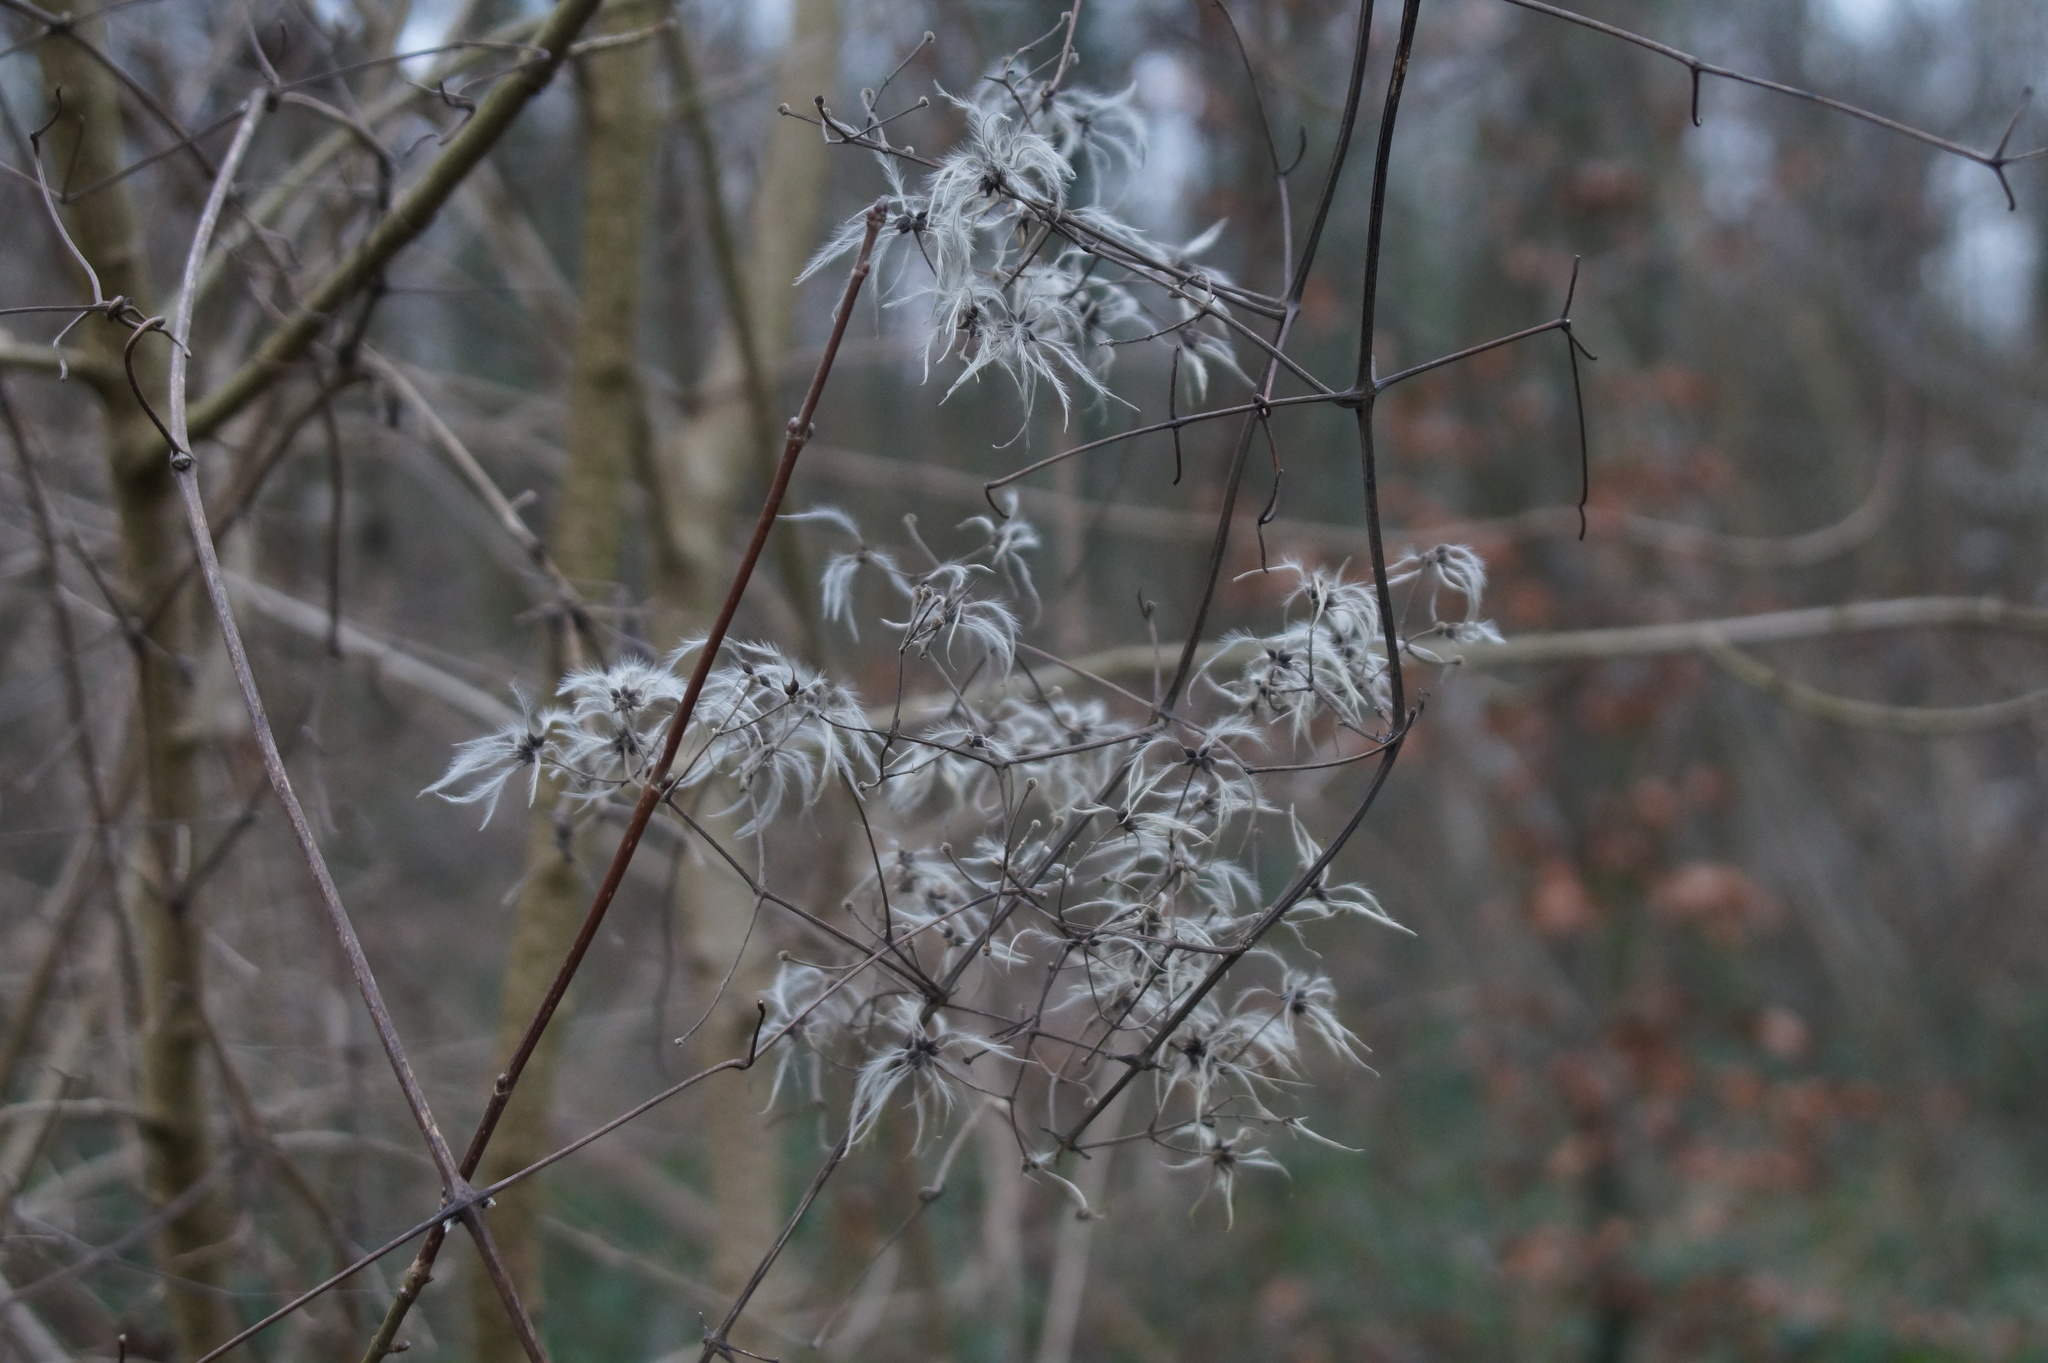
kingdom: Plantae
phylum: Tracheophyta
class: Magnoliopsida
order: Ranunculales
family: Ranunculaceae
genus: Clematis
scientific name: Clematis vitalba
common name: Evergreen clematis
